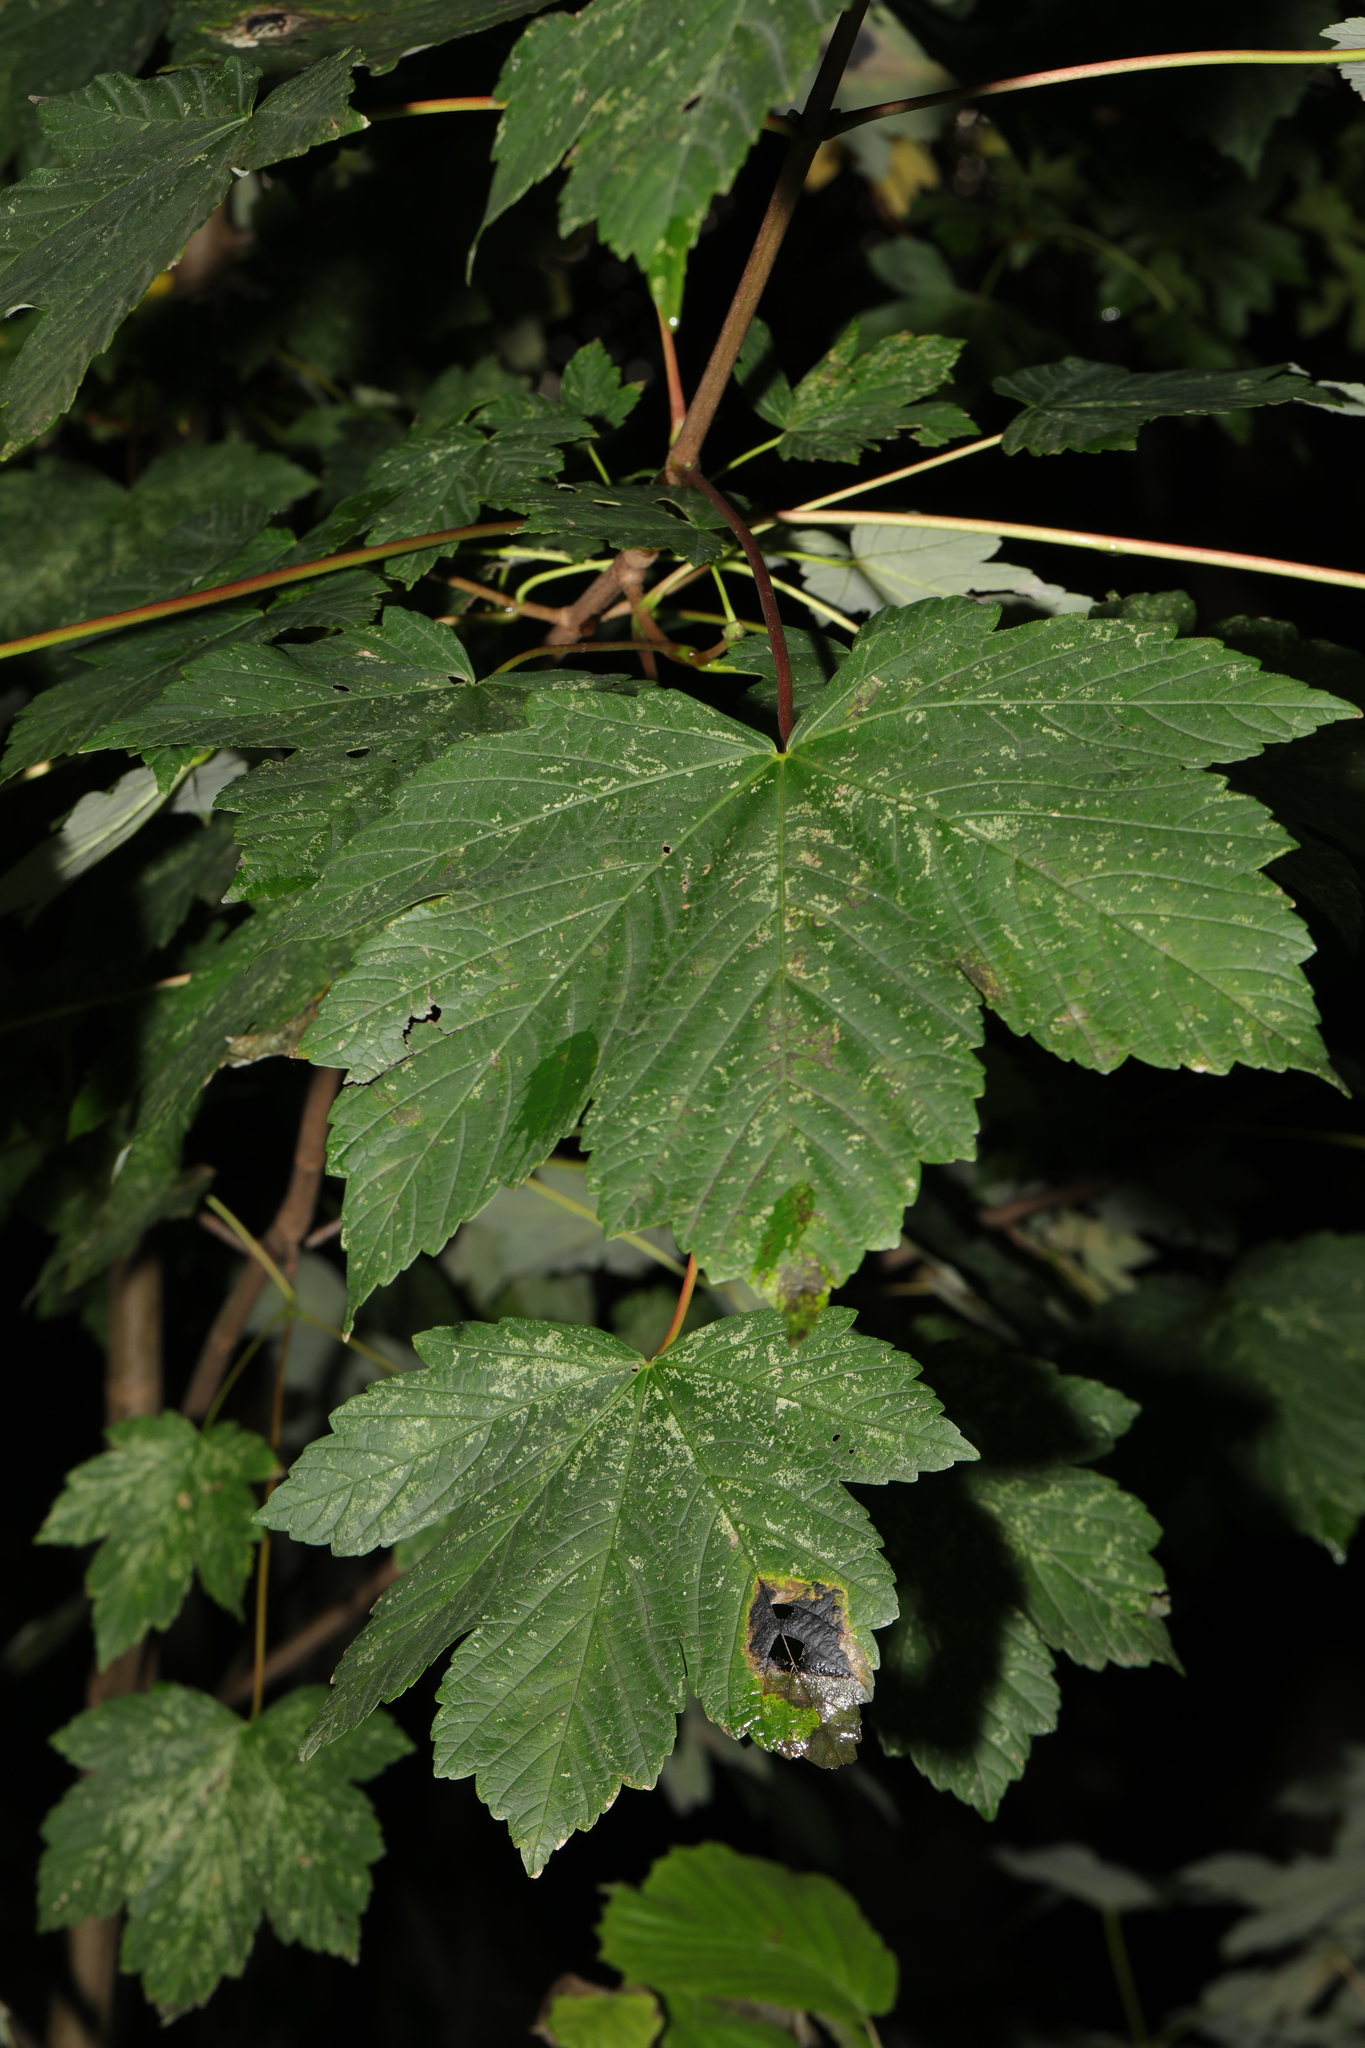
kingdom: Plantae
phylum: Tracheophyta
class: Magnoliopsida
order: Sapindales
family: Sapindaceae
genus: Acer
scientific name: Acer pseudoplatanus
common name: Sycamore
